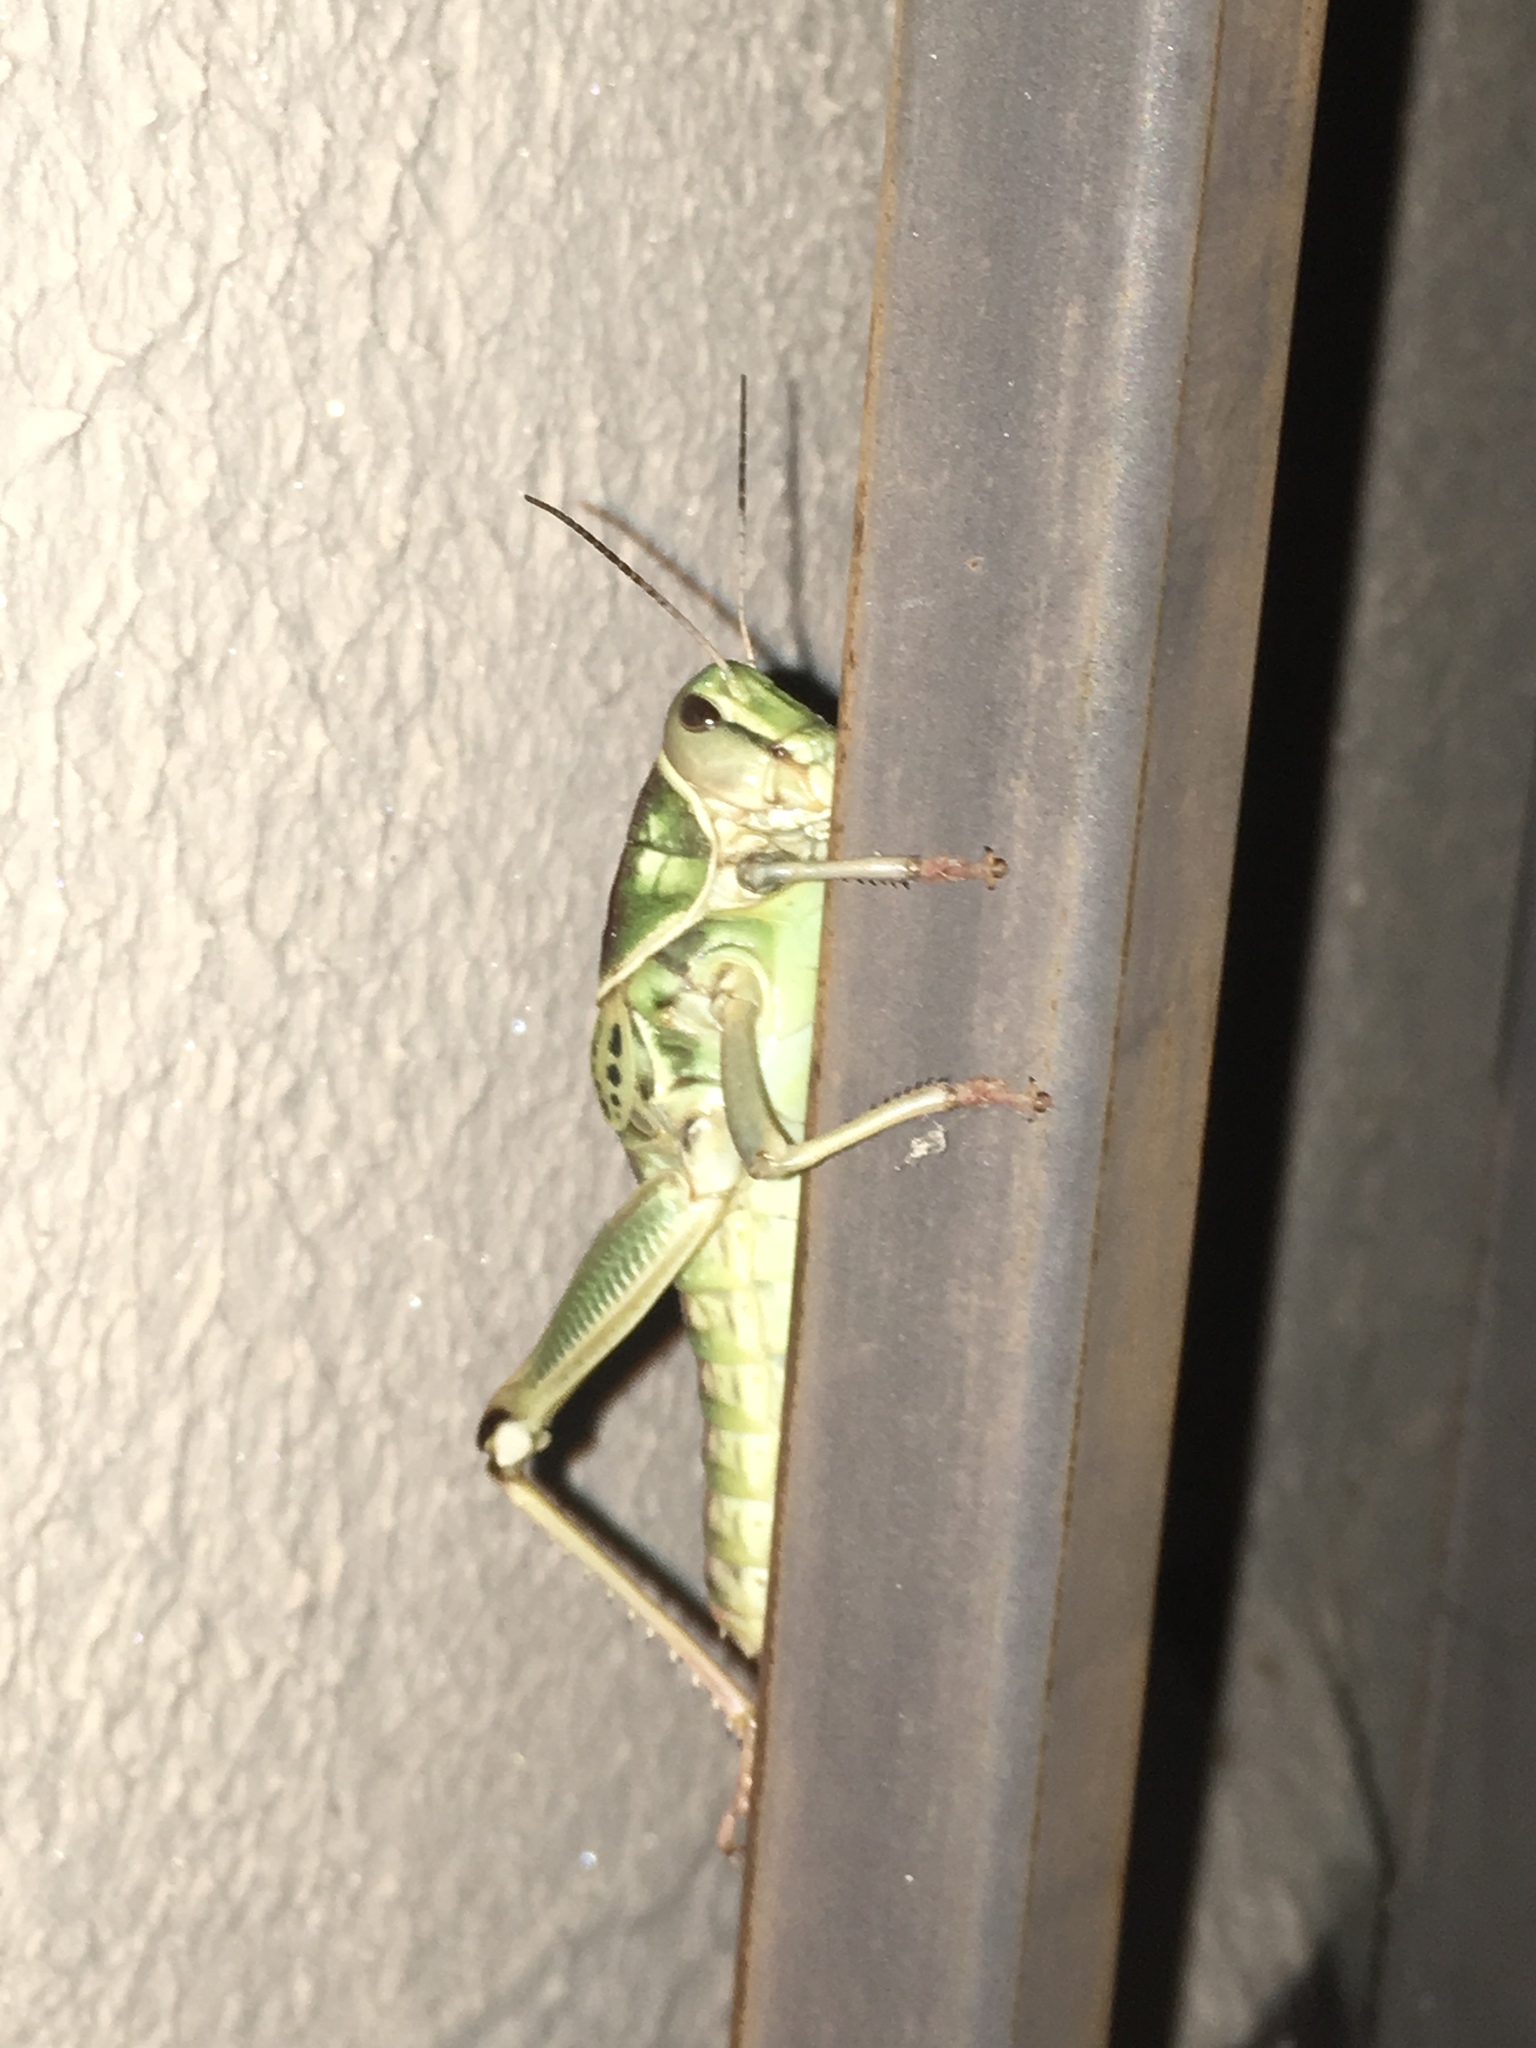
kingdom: Animalia
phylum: Arthropoda
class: Insecta
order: Orthoptera
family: Romaleidae
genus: Brachystola
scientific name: Brachystola magna
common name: Plains lubber grasshopper
